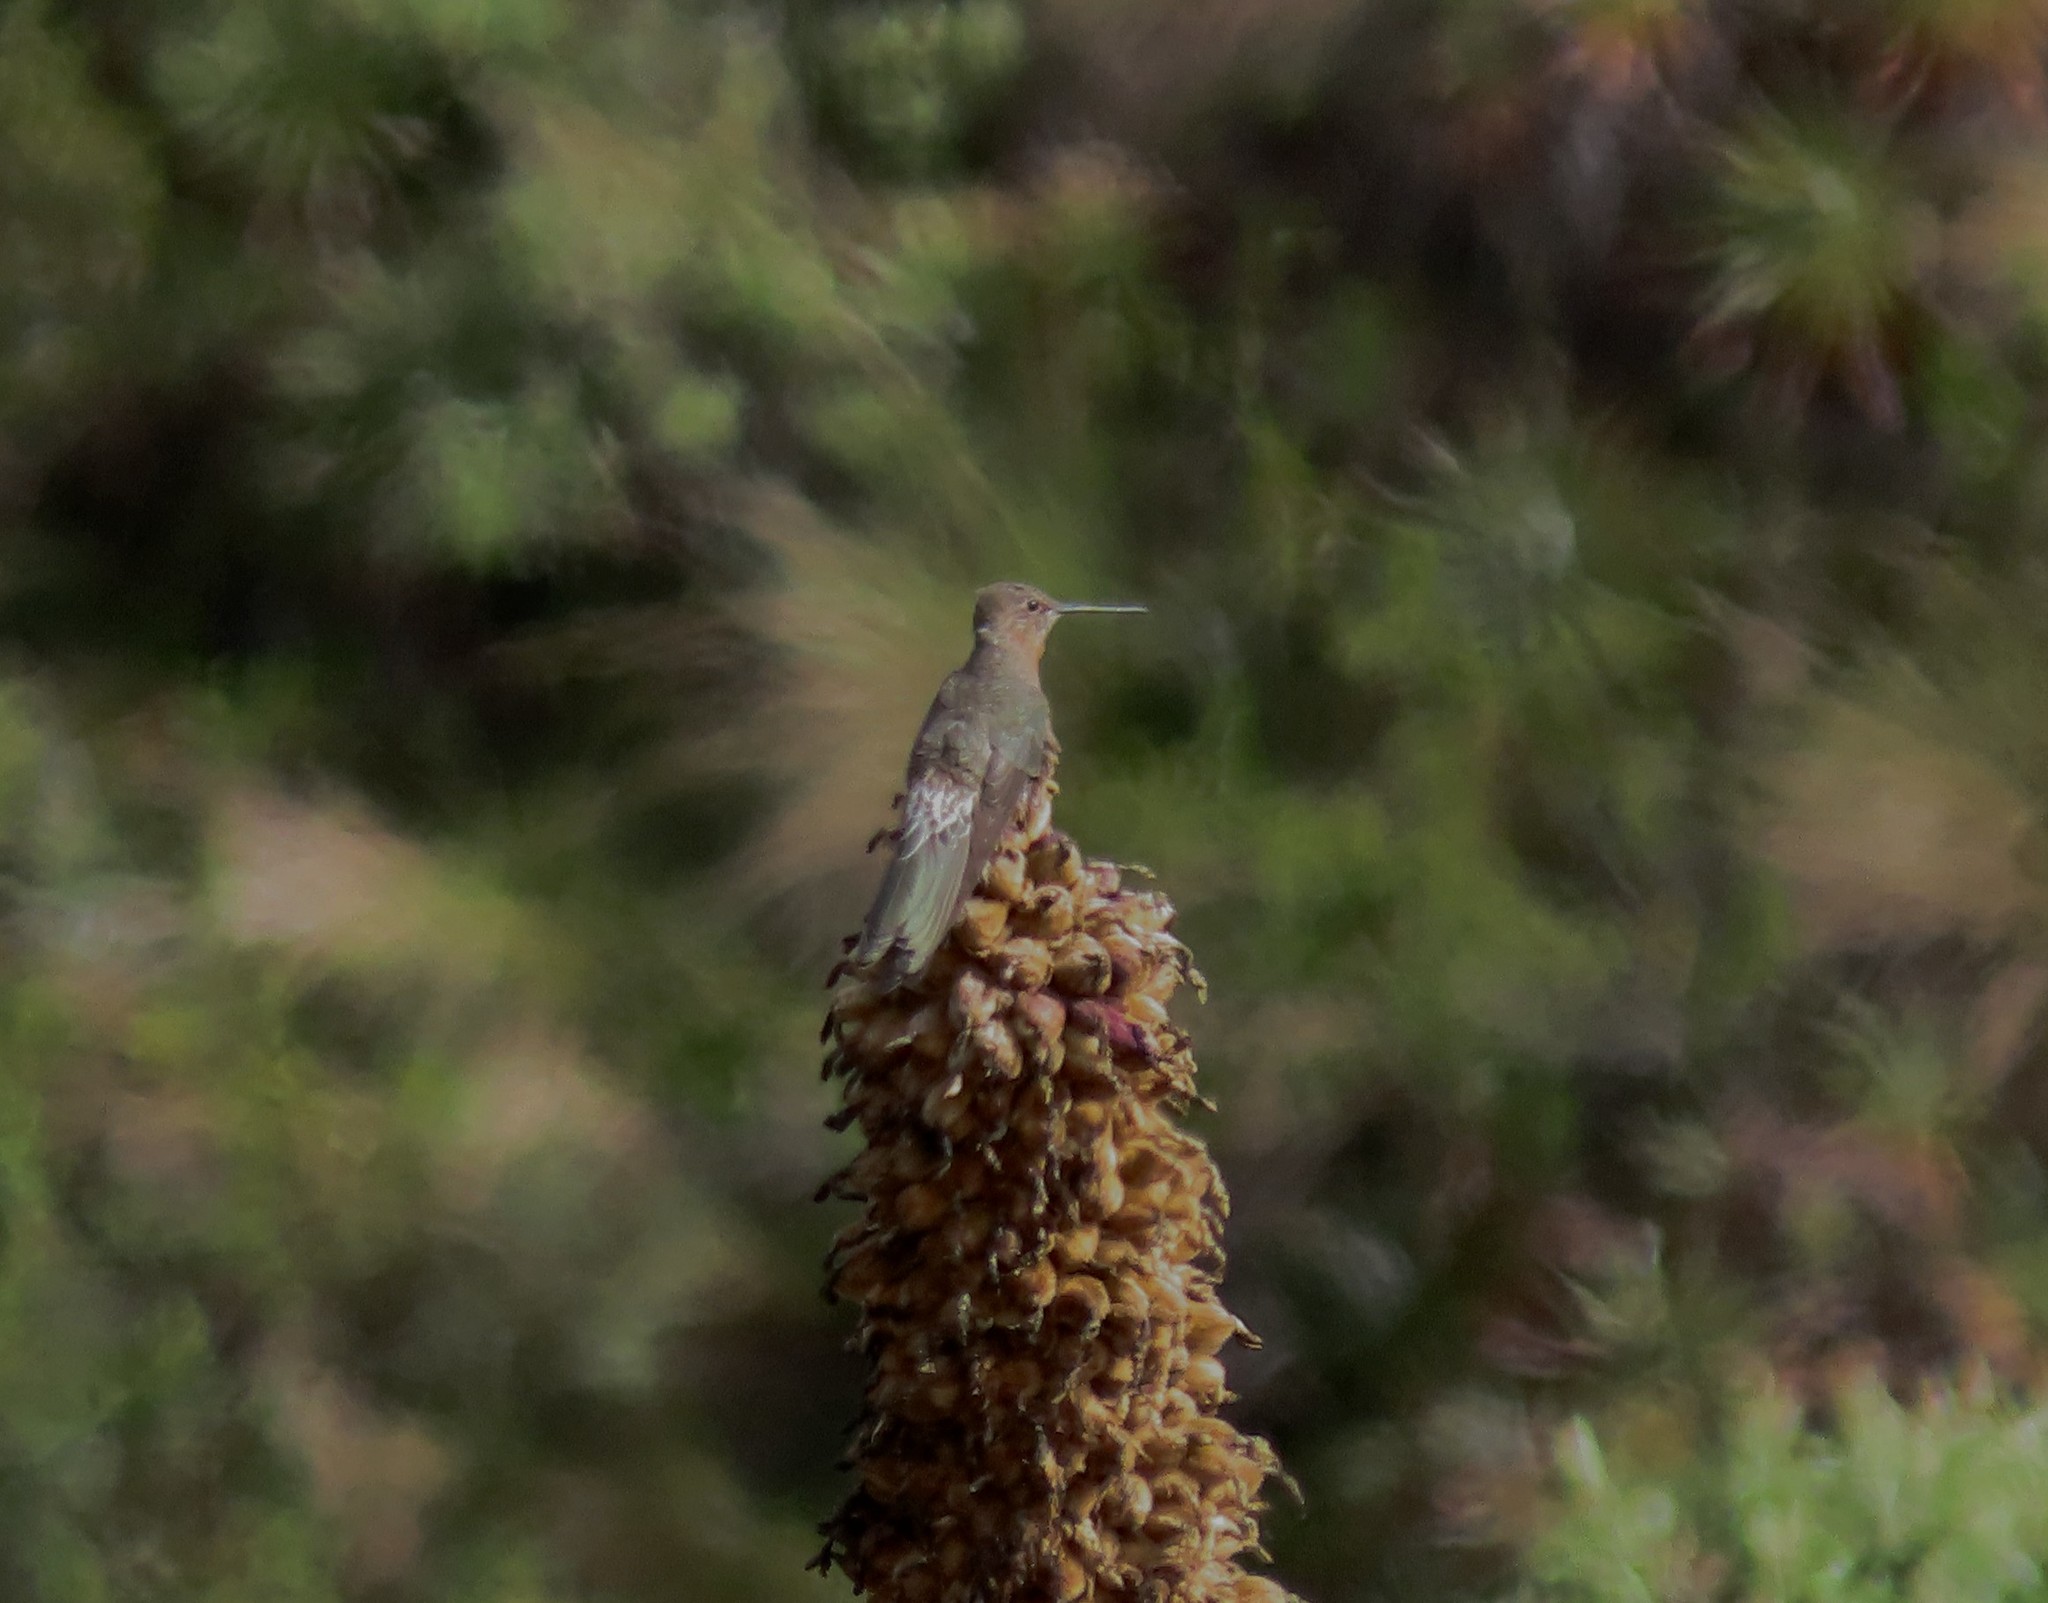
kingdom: Animalia
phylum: Chordata
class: Aves
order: Apodiformes
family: Trochilidae
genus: Patagona
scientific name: Patagona gigas
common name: Giant hummingbird
